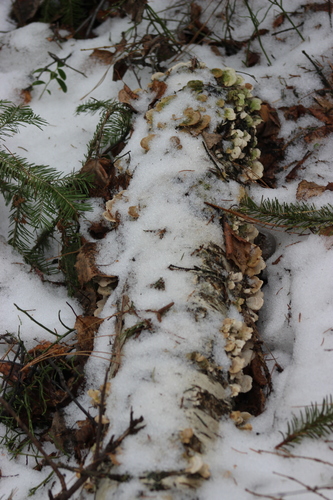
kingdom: Fungi
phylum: Basidiomycota
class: Agaricomycetes
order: Hymenochaetales
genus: Trichaptum
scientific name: Trichaptum biforme
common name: Violet-toothed polypore
